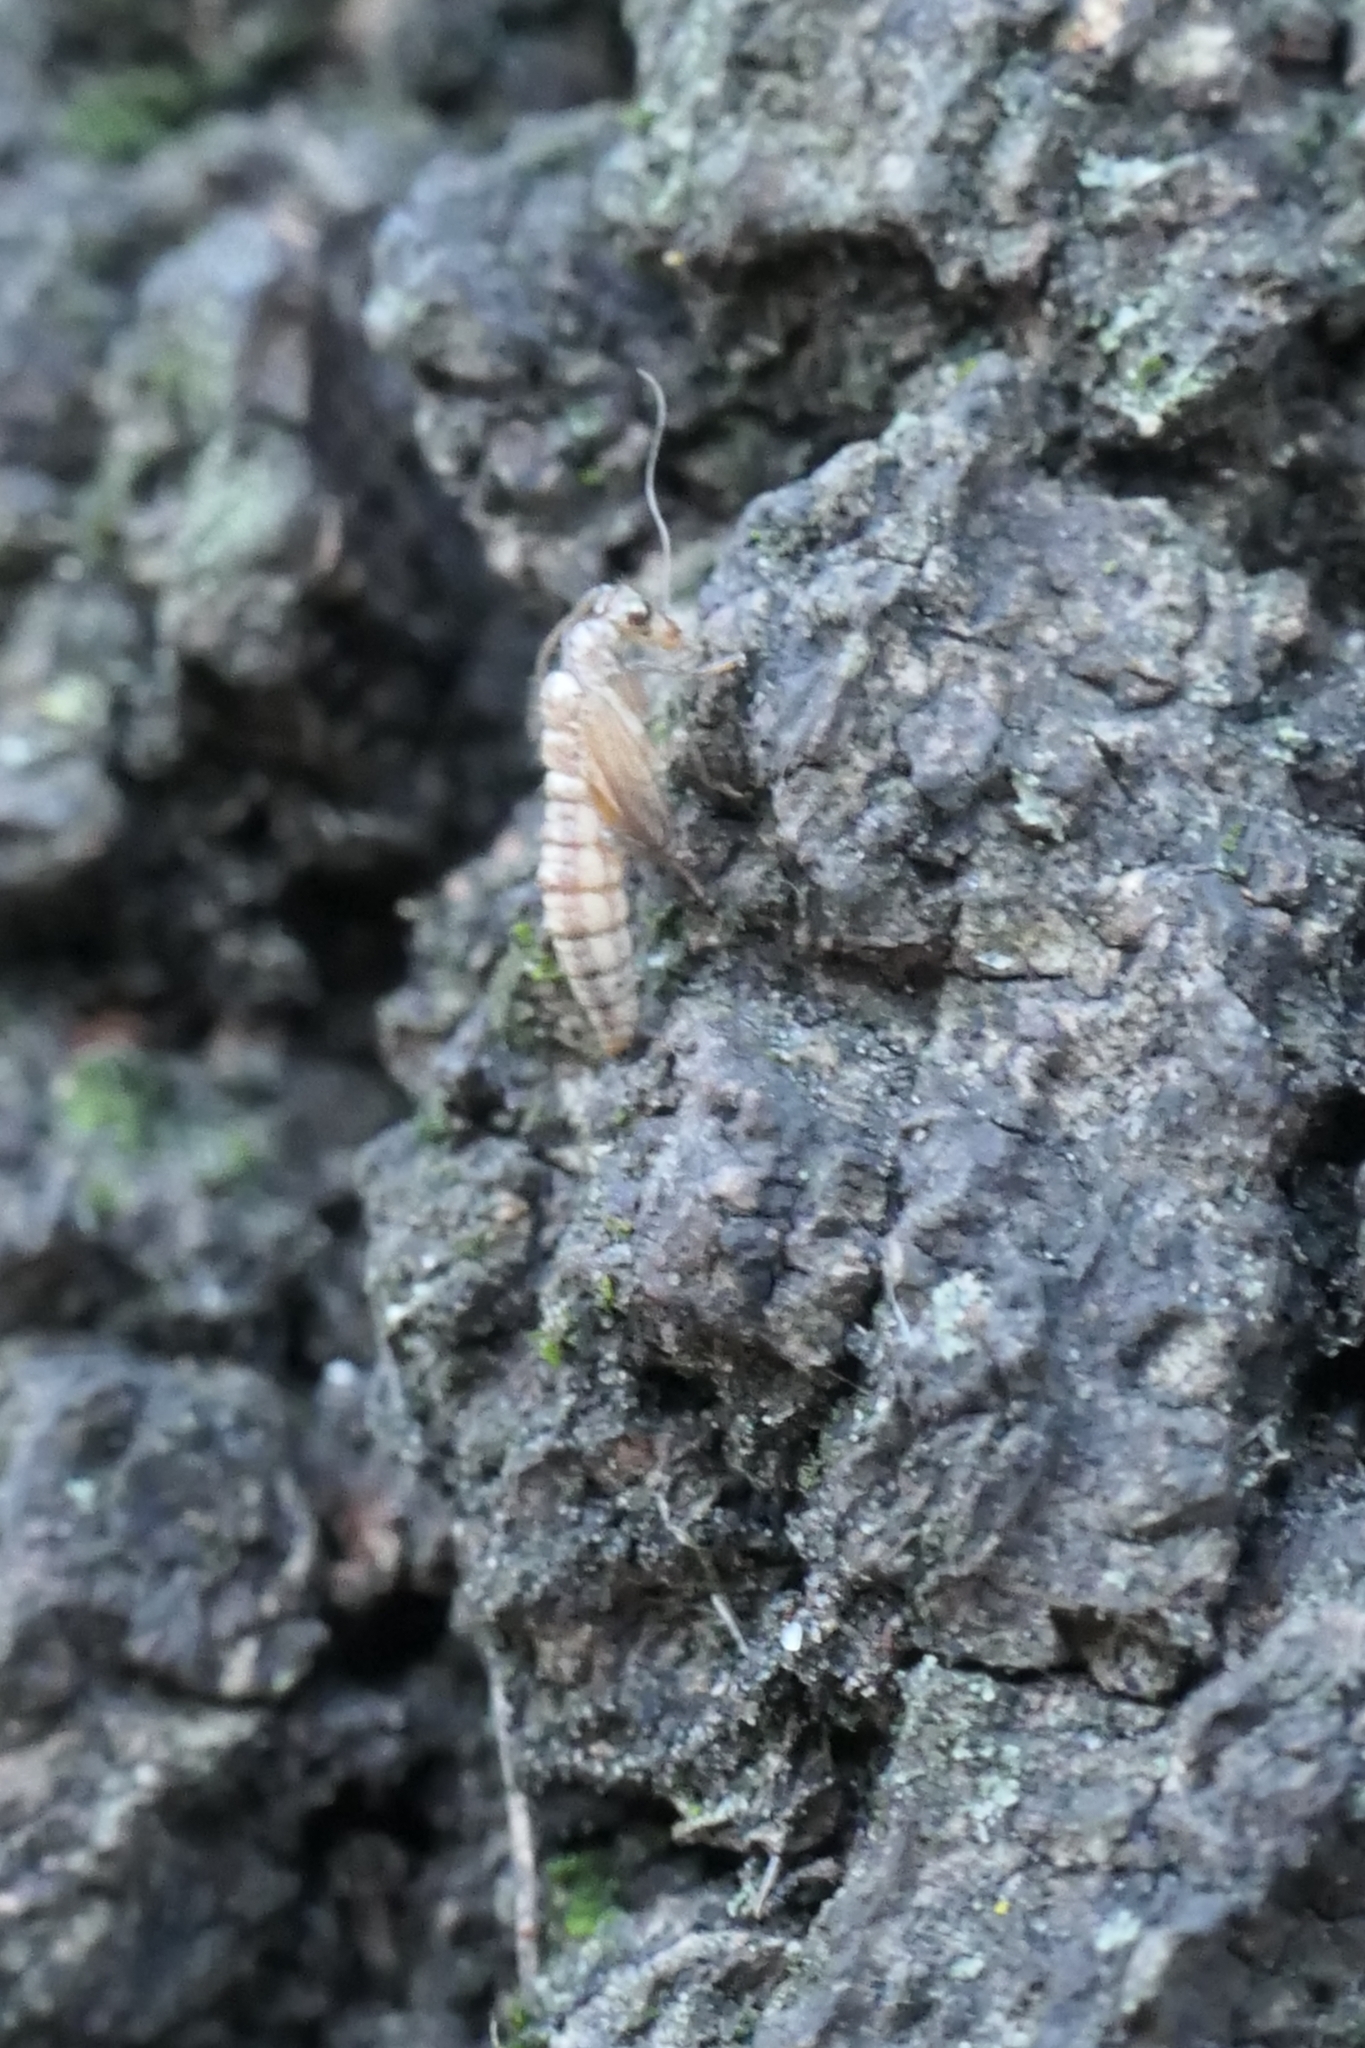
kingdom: Animalia
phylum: Arthropoda
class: Insecta
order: Neuroptera
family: Hemerobiidae
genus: Wesmaelius
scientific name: Wesmaelius subnebulosus
